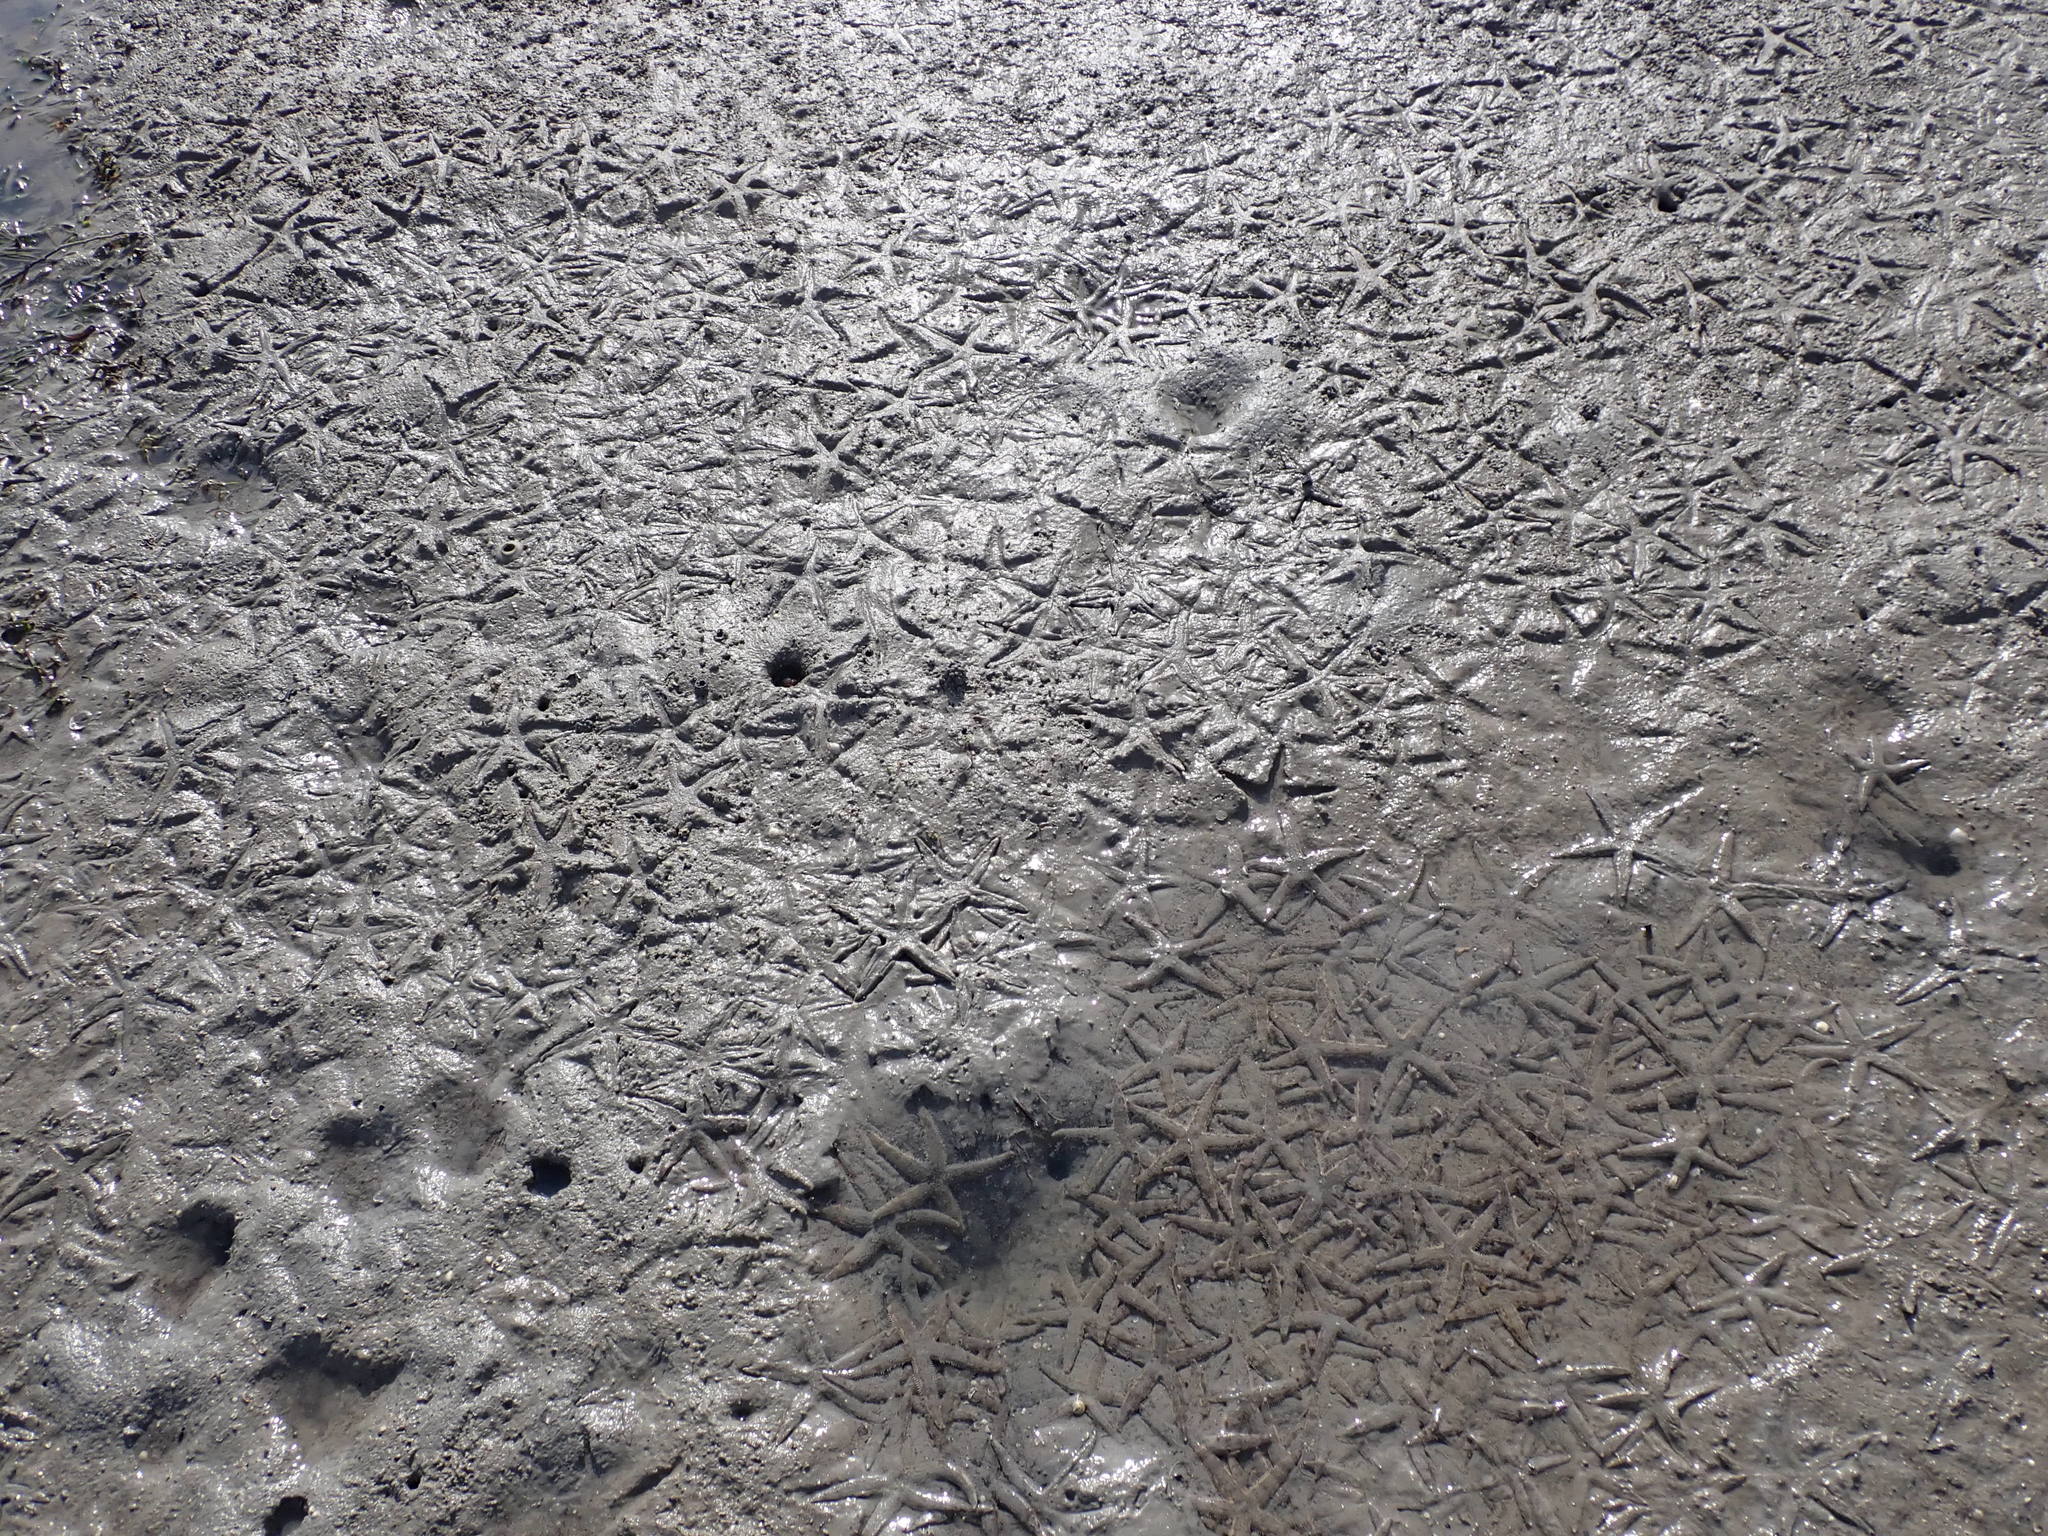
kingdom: Animalia
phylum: Echinodermata
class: Asteroidea
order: Valvatida
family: Archasteridae
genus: Archaster
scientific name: Archaster typicus
